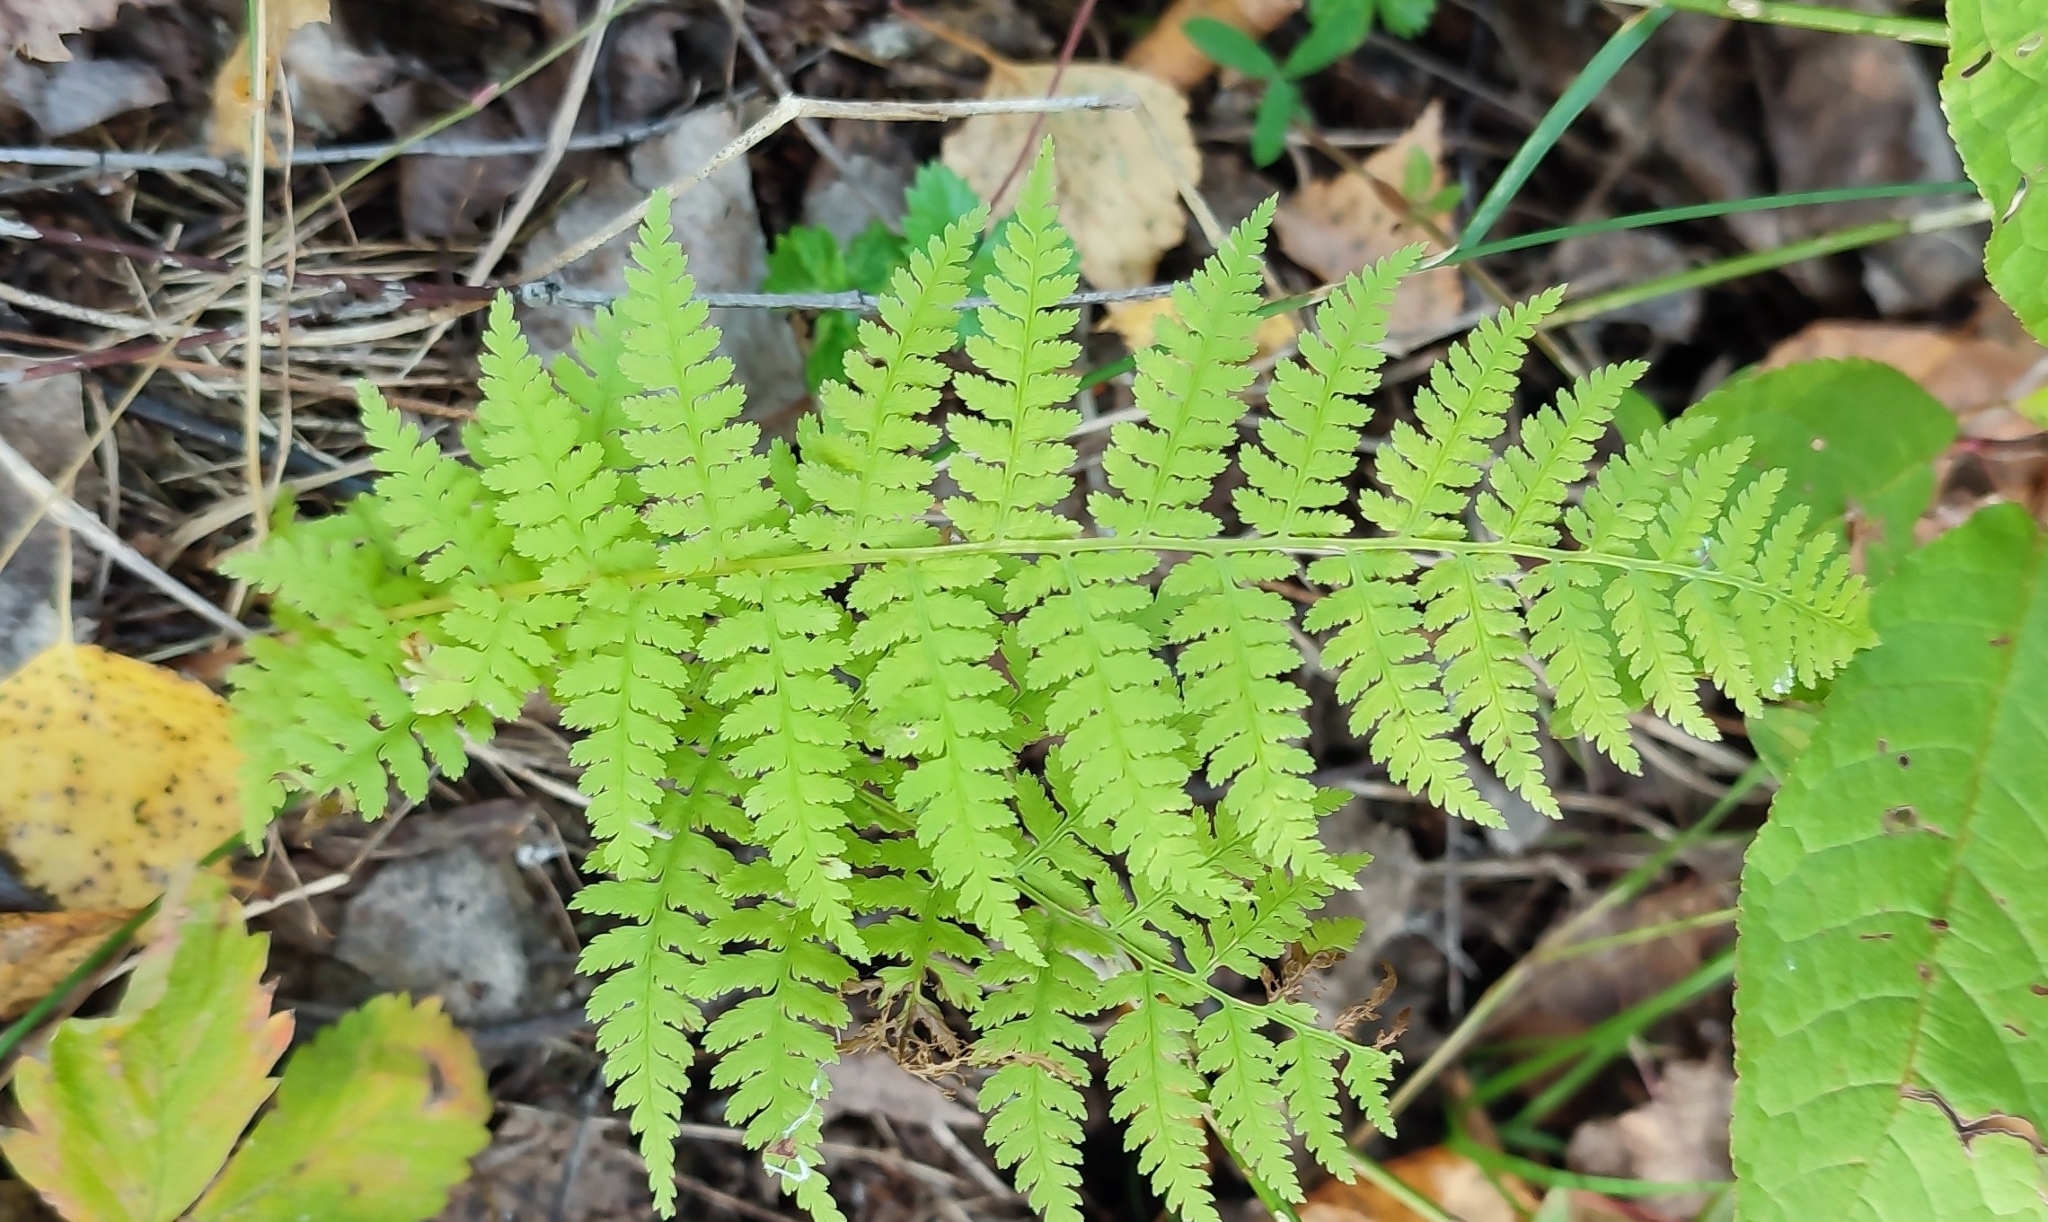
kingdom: Plantae
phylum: Tracheophyta
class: Polypodiopsida
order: Polypodiales
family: Athyriaceae
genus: Athyrium
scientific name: Athyrium filix-femina
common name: Lady fern
